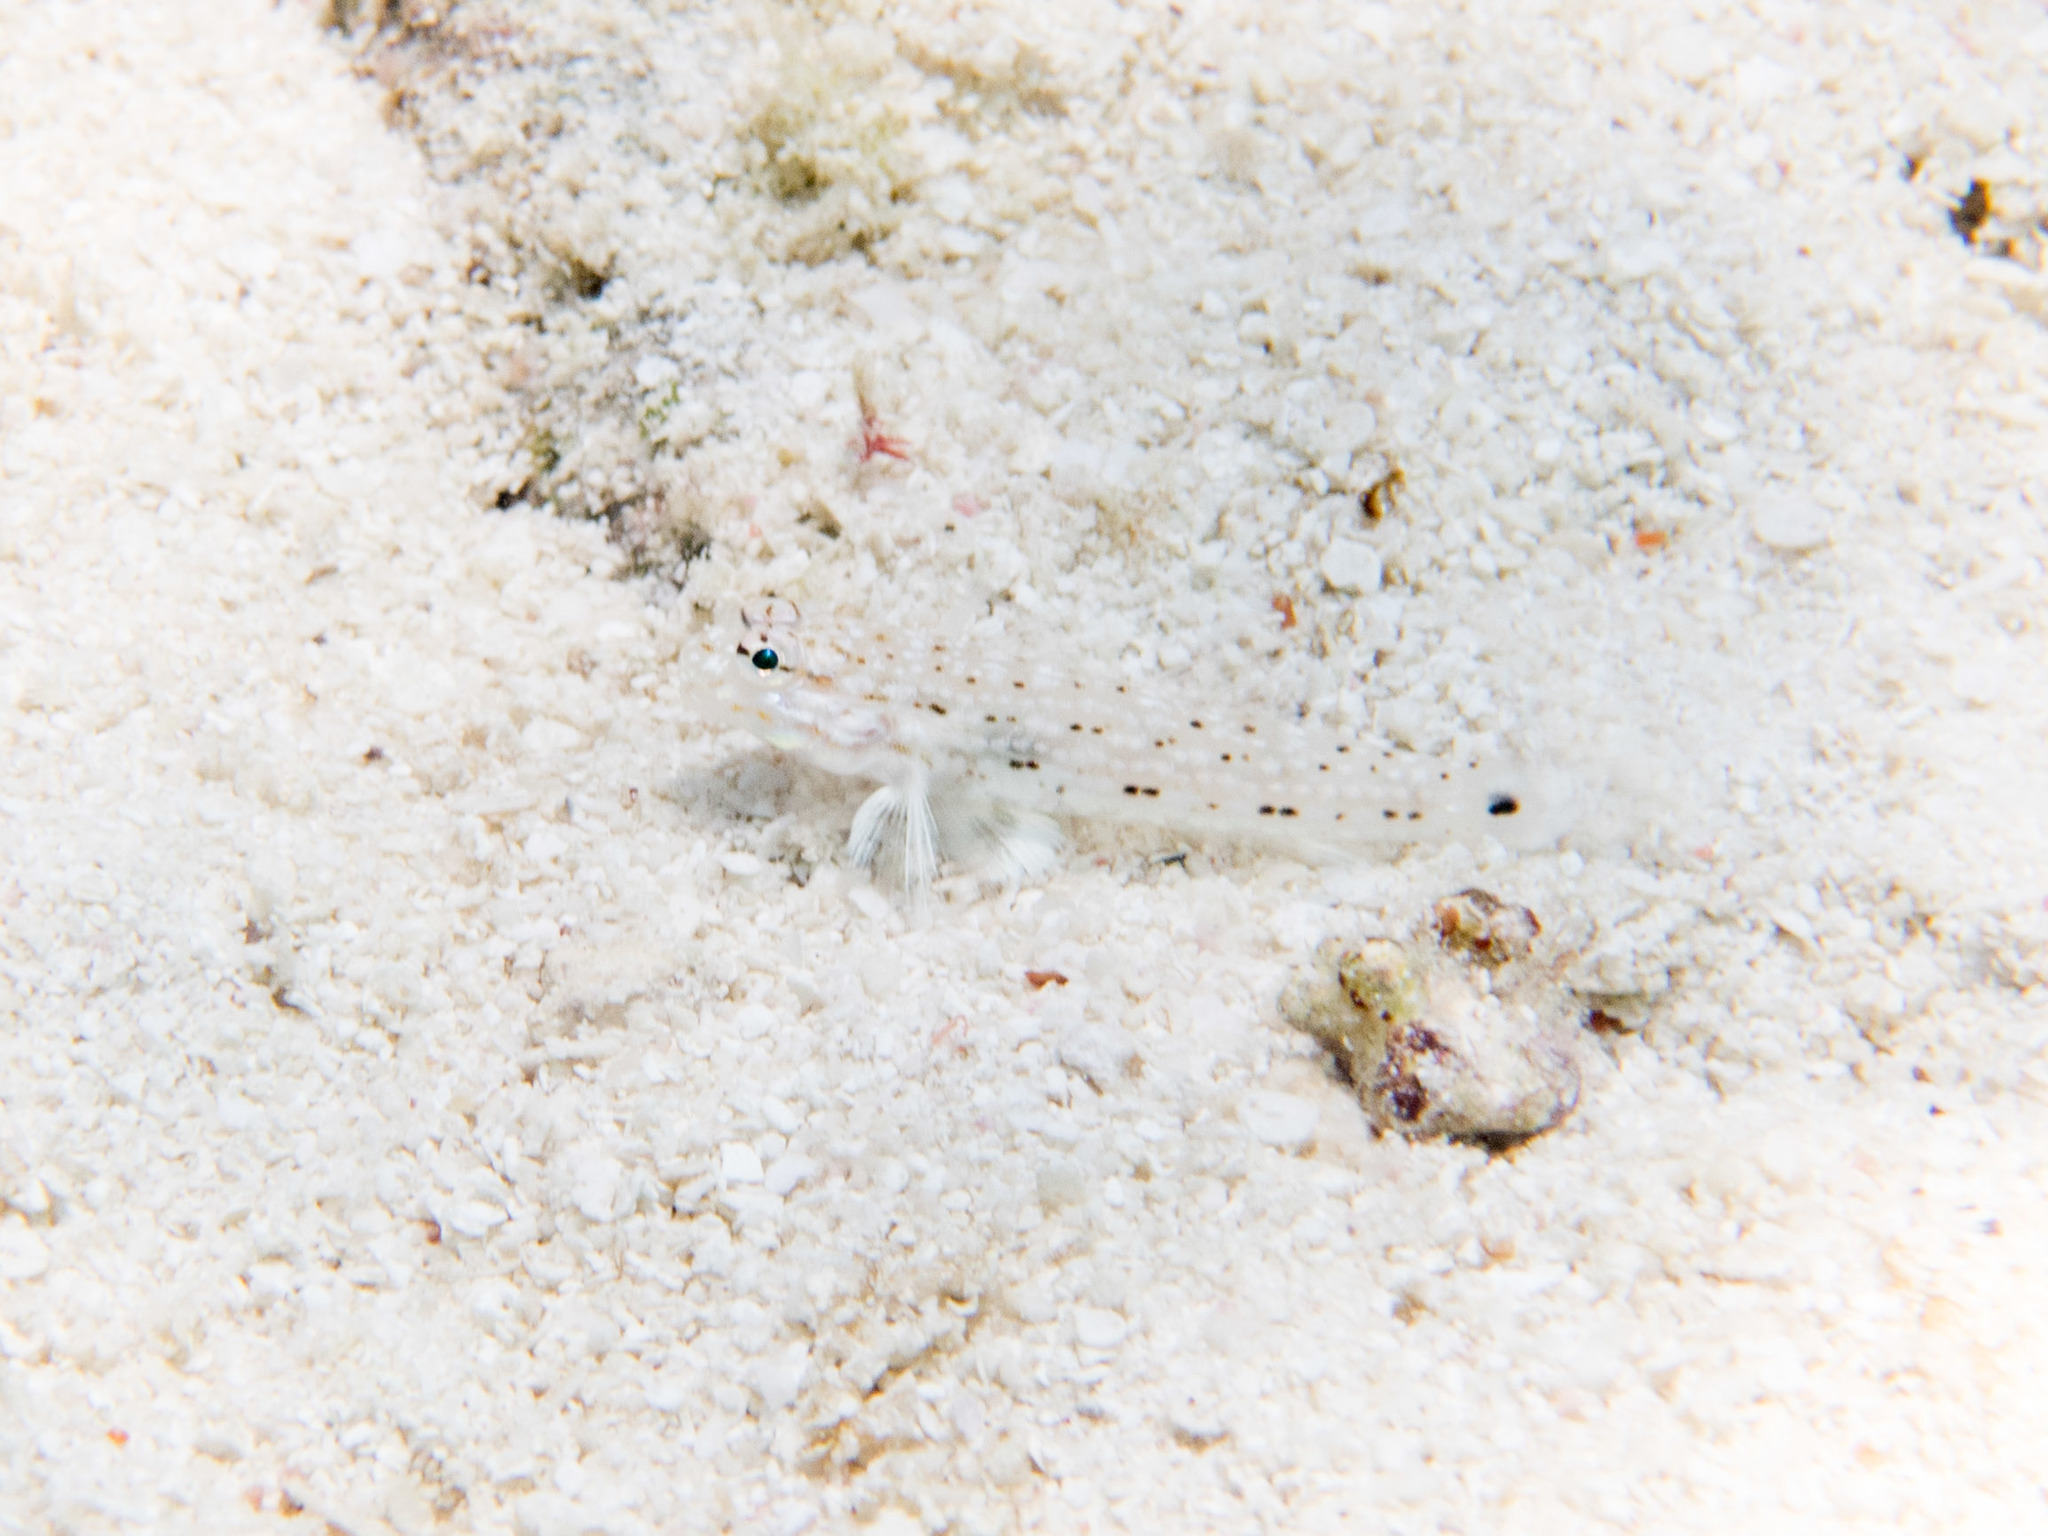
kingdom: Animalia
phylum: Chordata
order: Perciformes
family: Gobiidae
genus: Istigobius
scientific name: Istigobius decoratus
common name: Decorated goby
